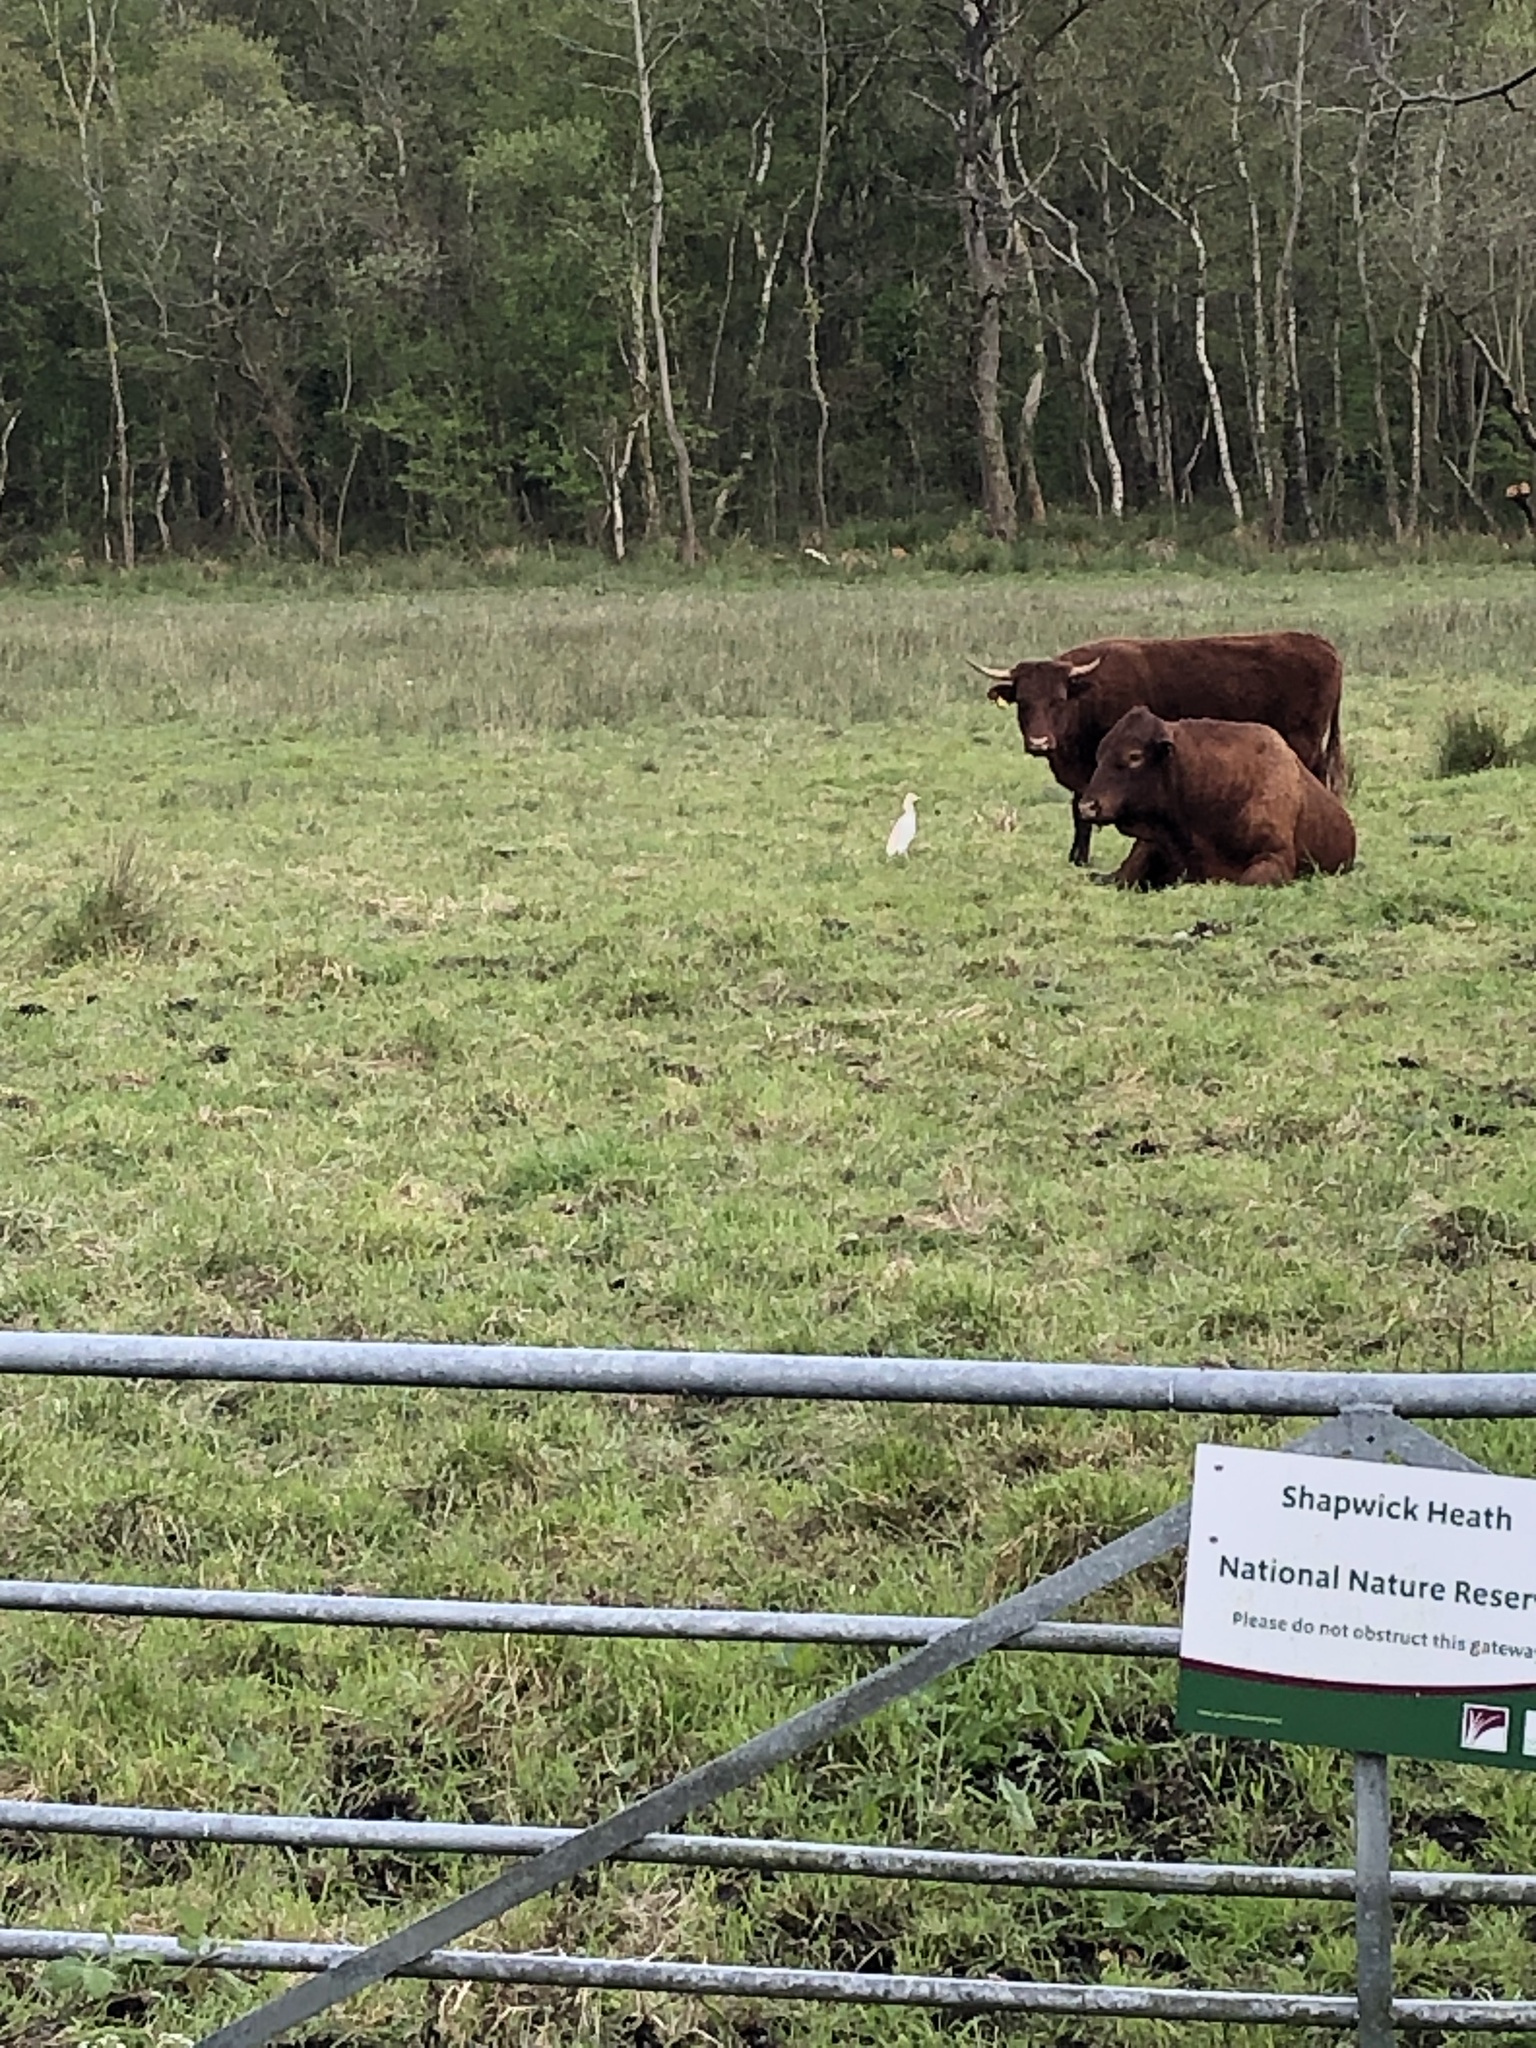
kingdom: Animalia
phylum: Chordata
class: Aves
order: Pelecaniformes
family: Ardeidae
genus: Bubulcus
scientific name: Bubulcus ibis
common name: Cattle egret
